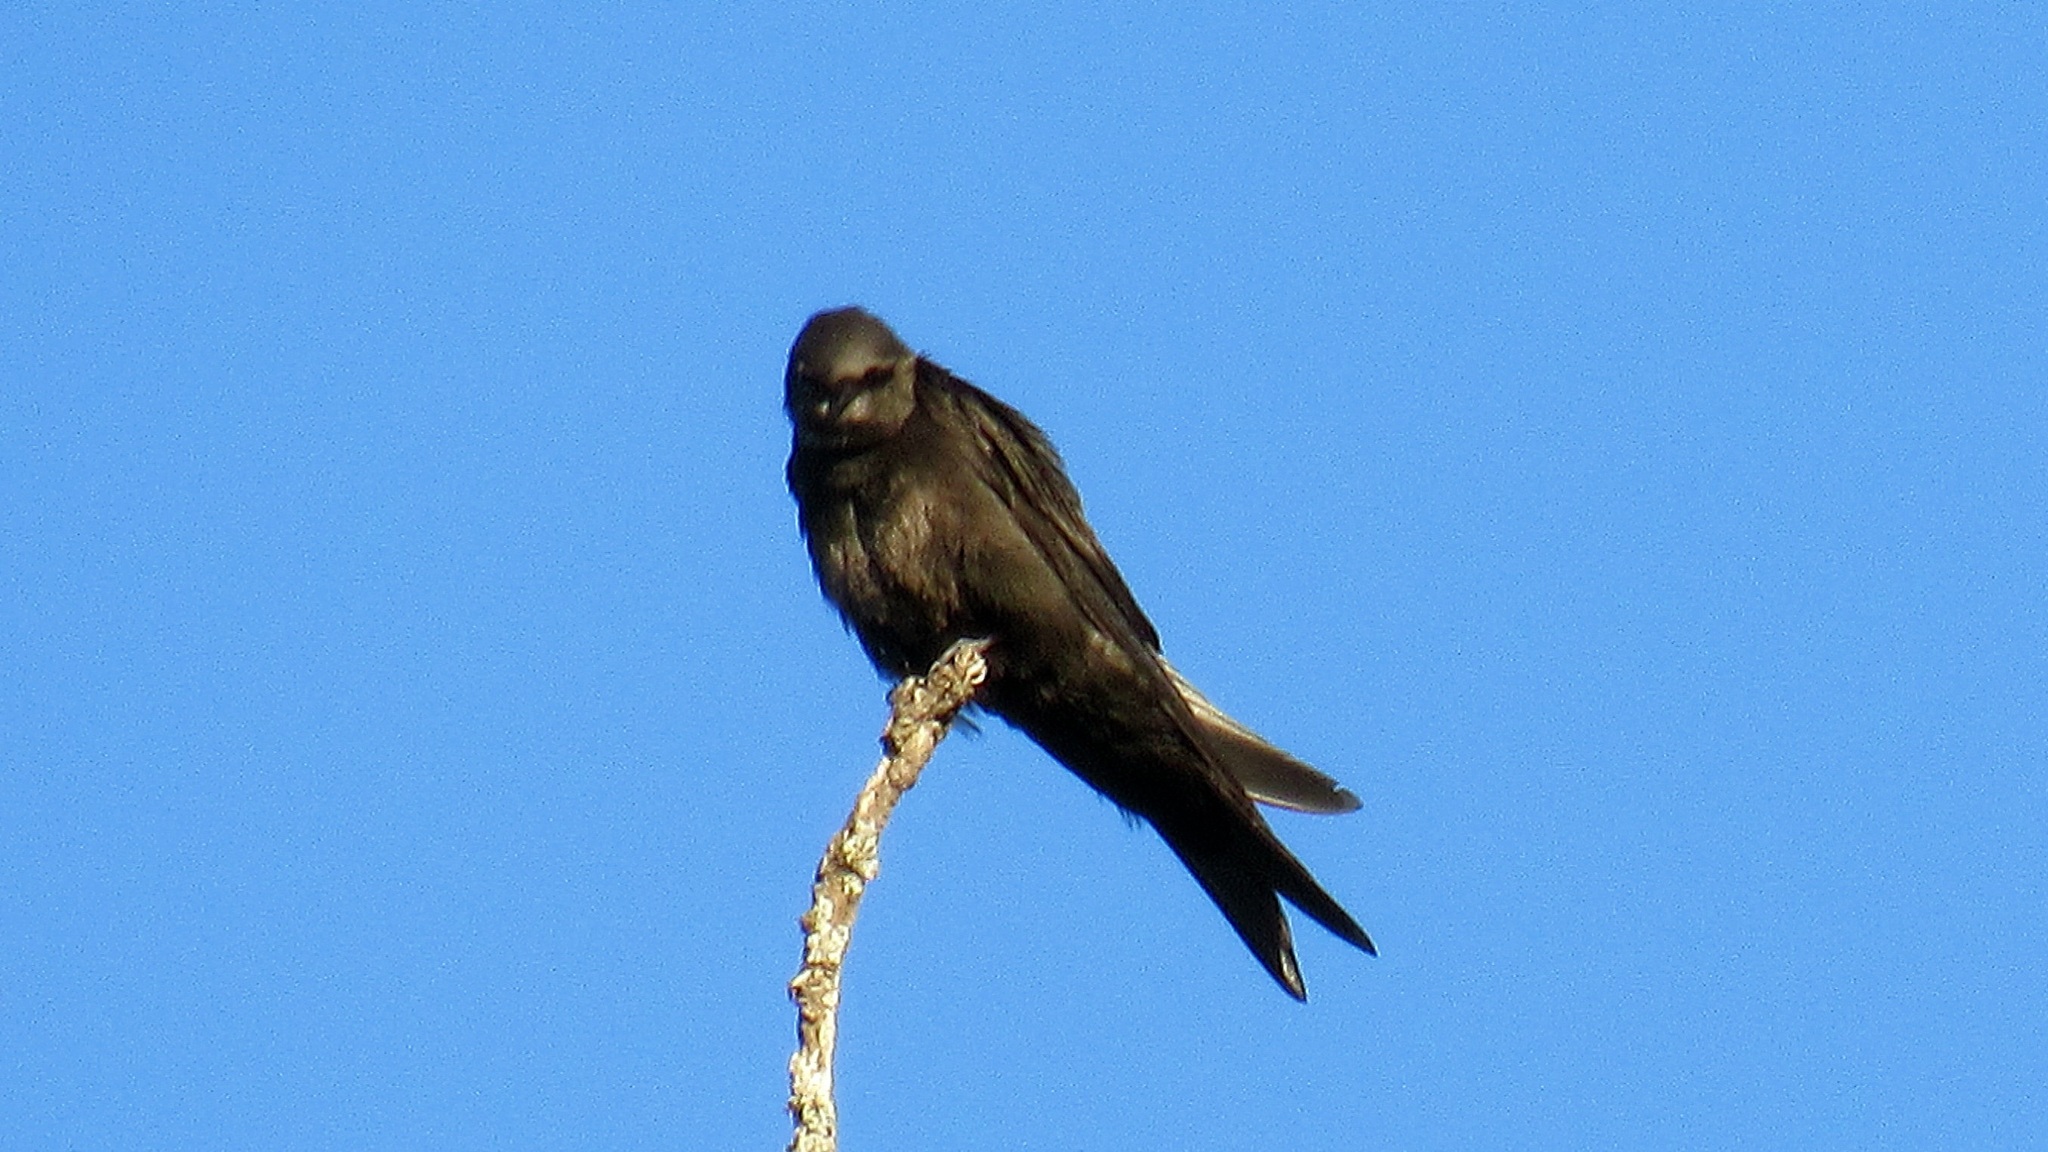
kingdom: Animalia
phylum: Chordata
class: Aves
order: Passeriformes
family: Hirundinidae
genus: Psalidoprocne
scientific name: Psalidoprocne pristoptera
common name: Black saw-wing
